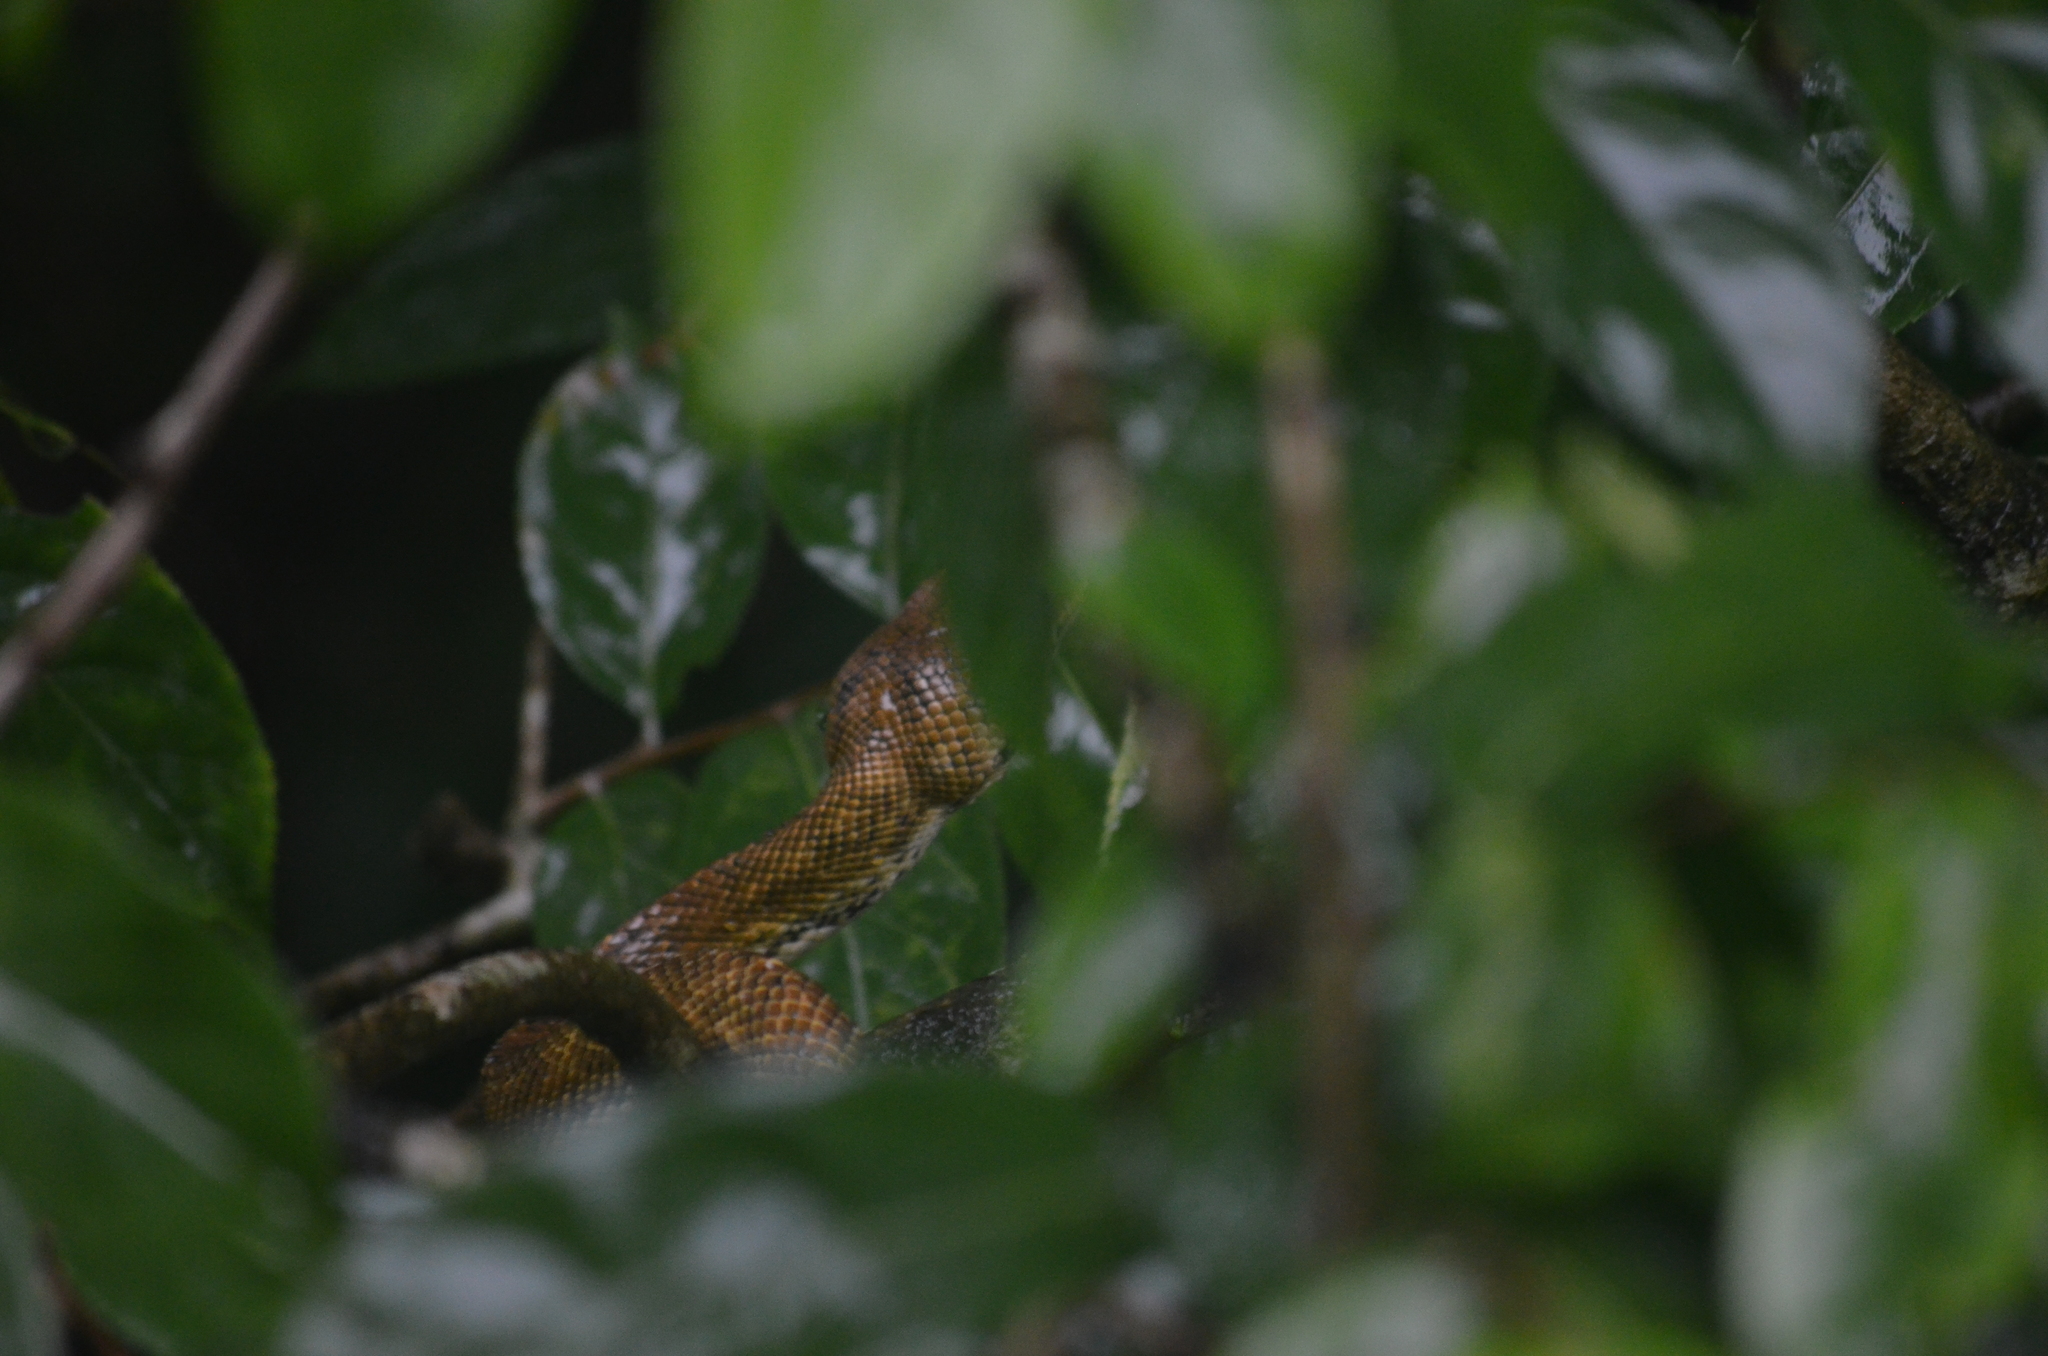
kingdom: Animalia
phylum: Chordata
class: Squamata
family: Boidae
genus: Corallus
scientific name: Corallus ruschenbergerii
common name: Dormilona
